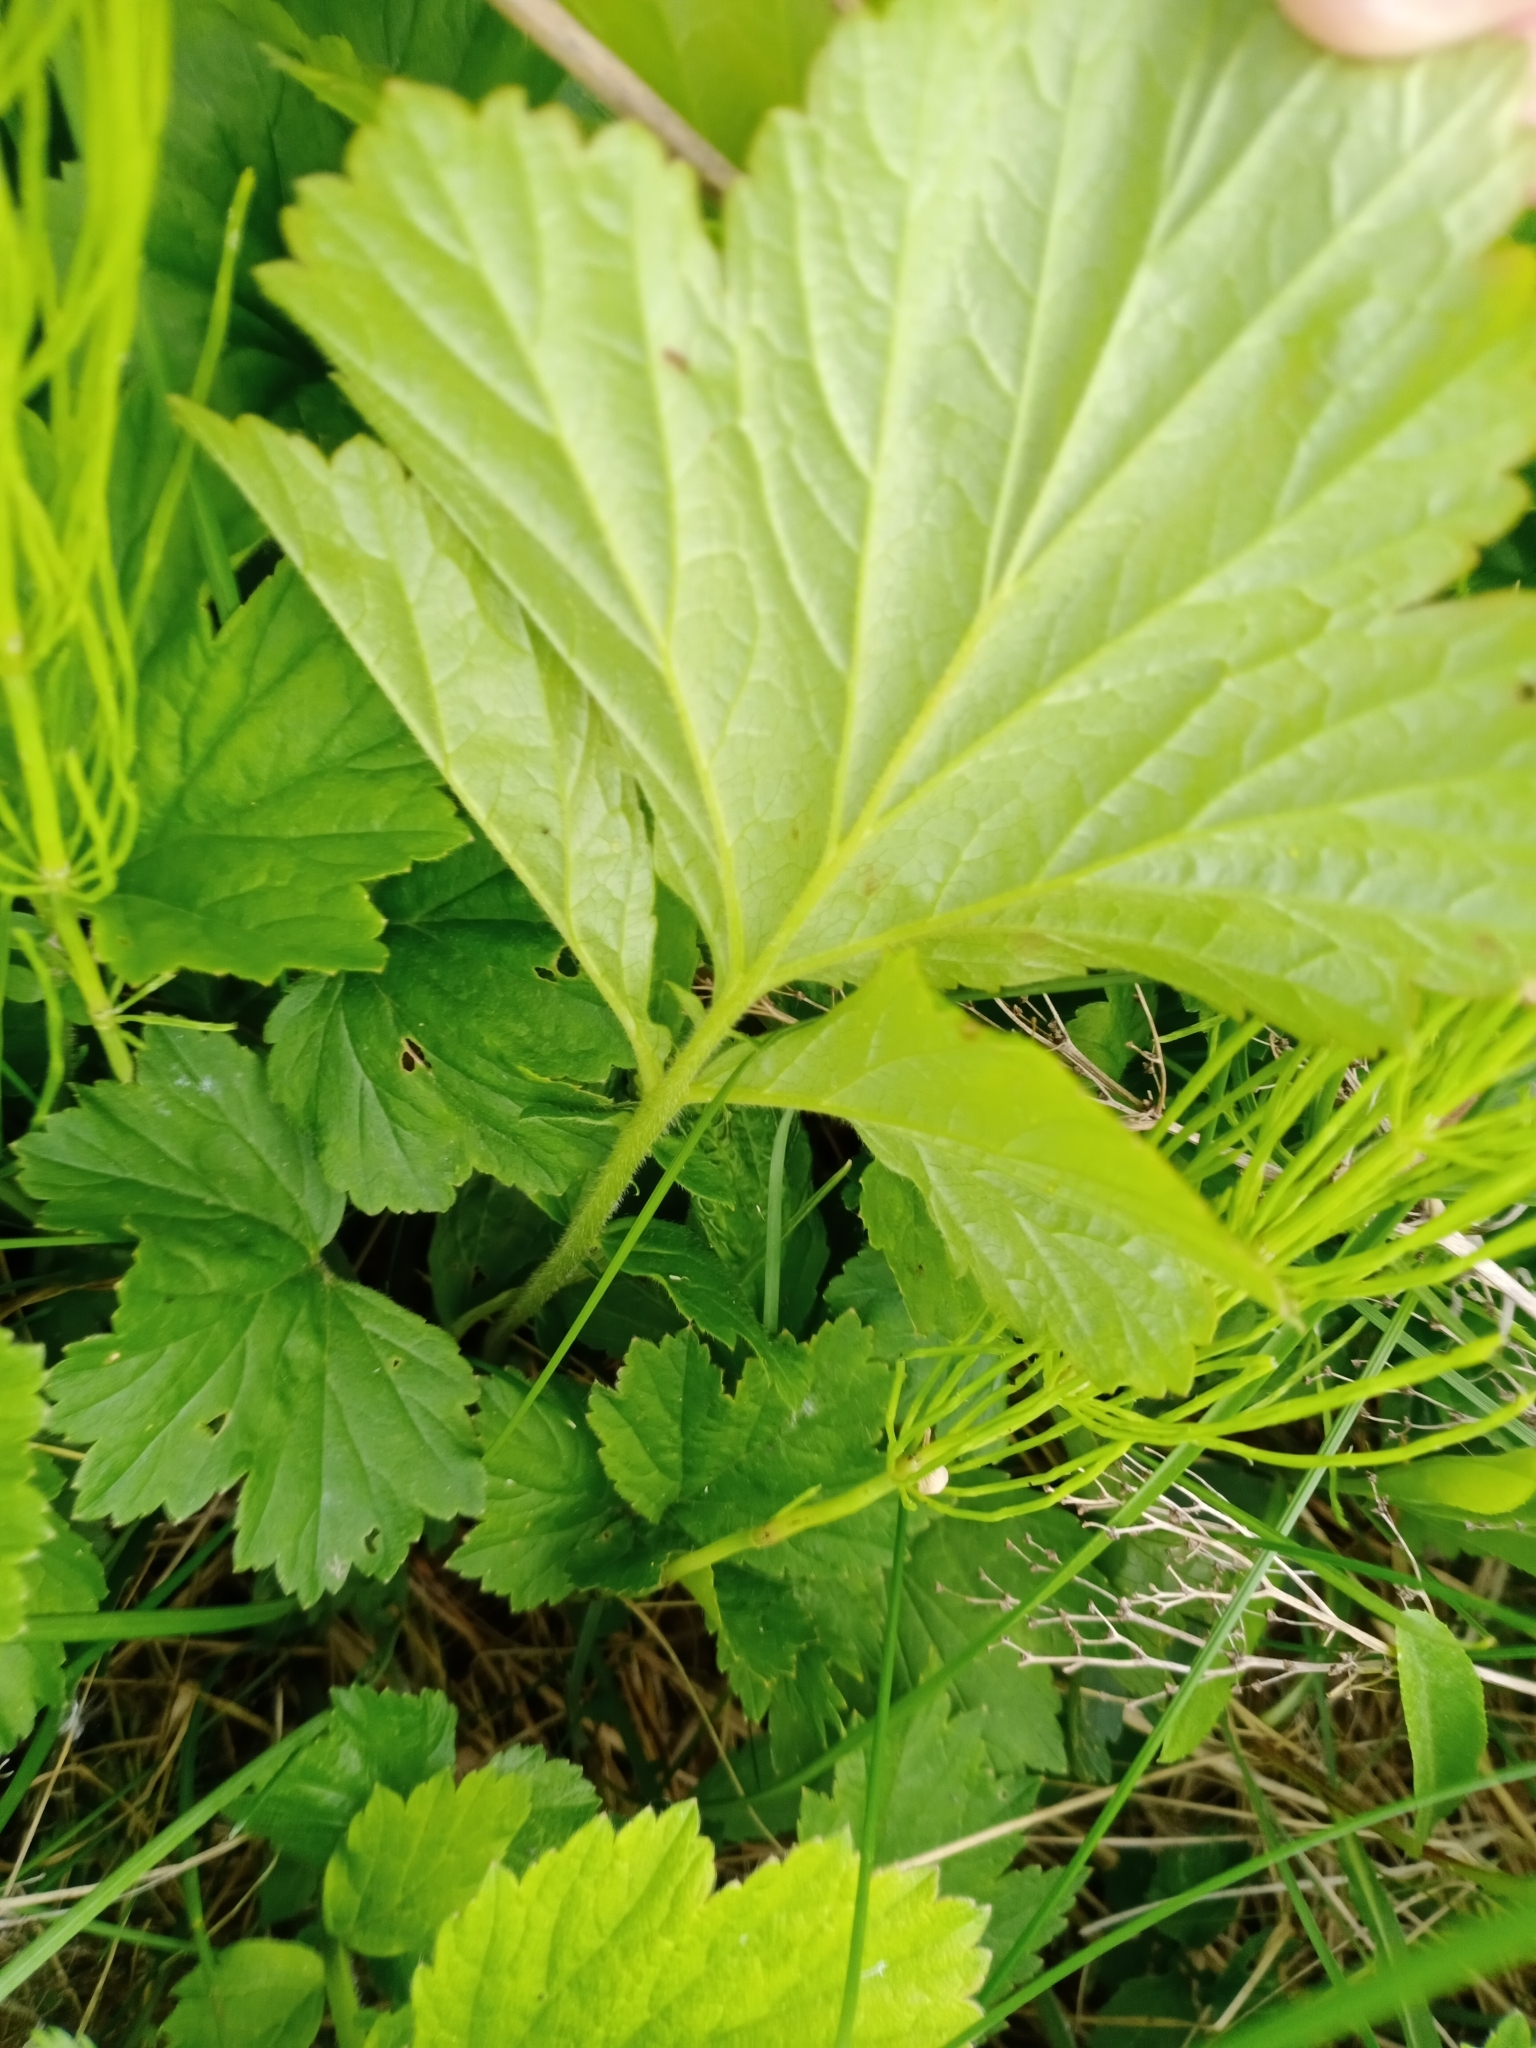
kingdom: Plantae
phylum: Tracheophyta
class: Magnoliopsida
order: Rosales
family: Rosaceae
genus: Geum
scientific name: Geum rivale
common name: Water avens
